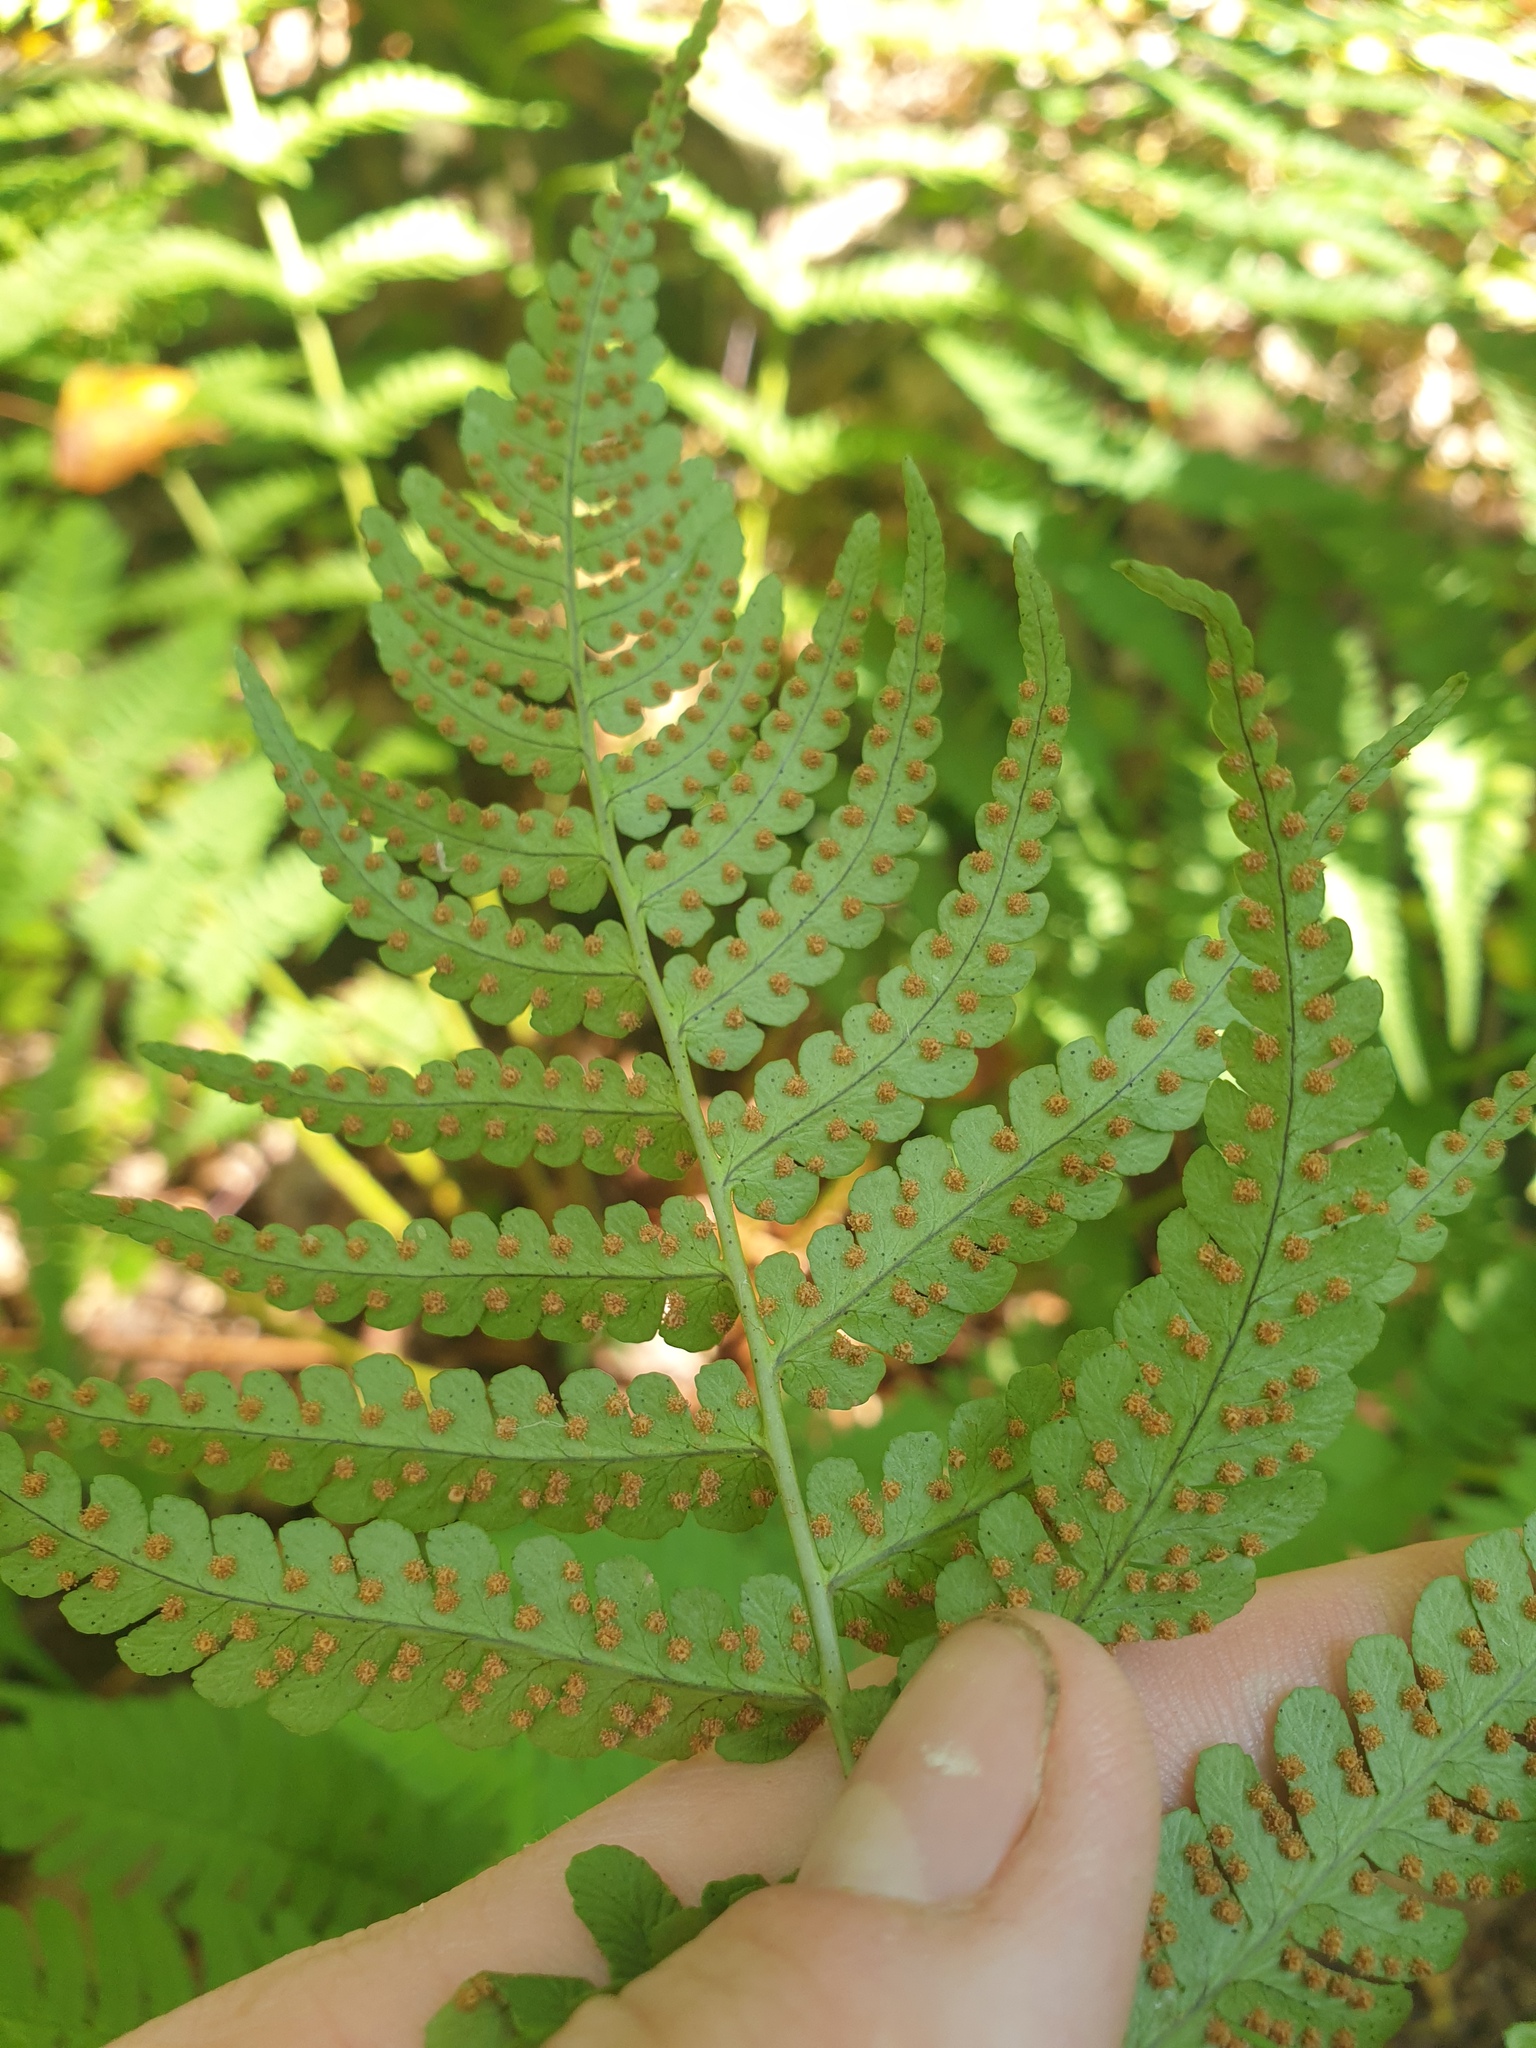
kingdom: Plantae
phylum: Tracheophyta
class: Polypodiopsida
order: Polypodiales
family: Dryopteridaceae
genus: Dryopteris
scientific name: Dryopteris marginalis
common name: Marginal wood fern
